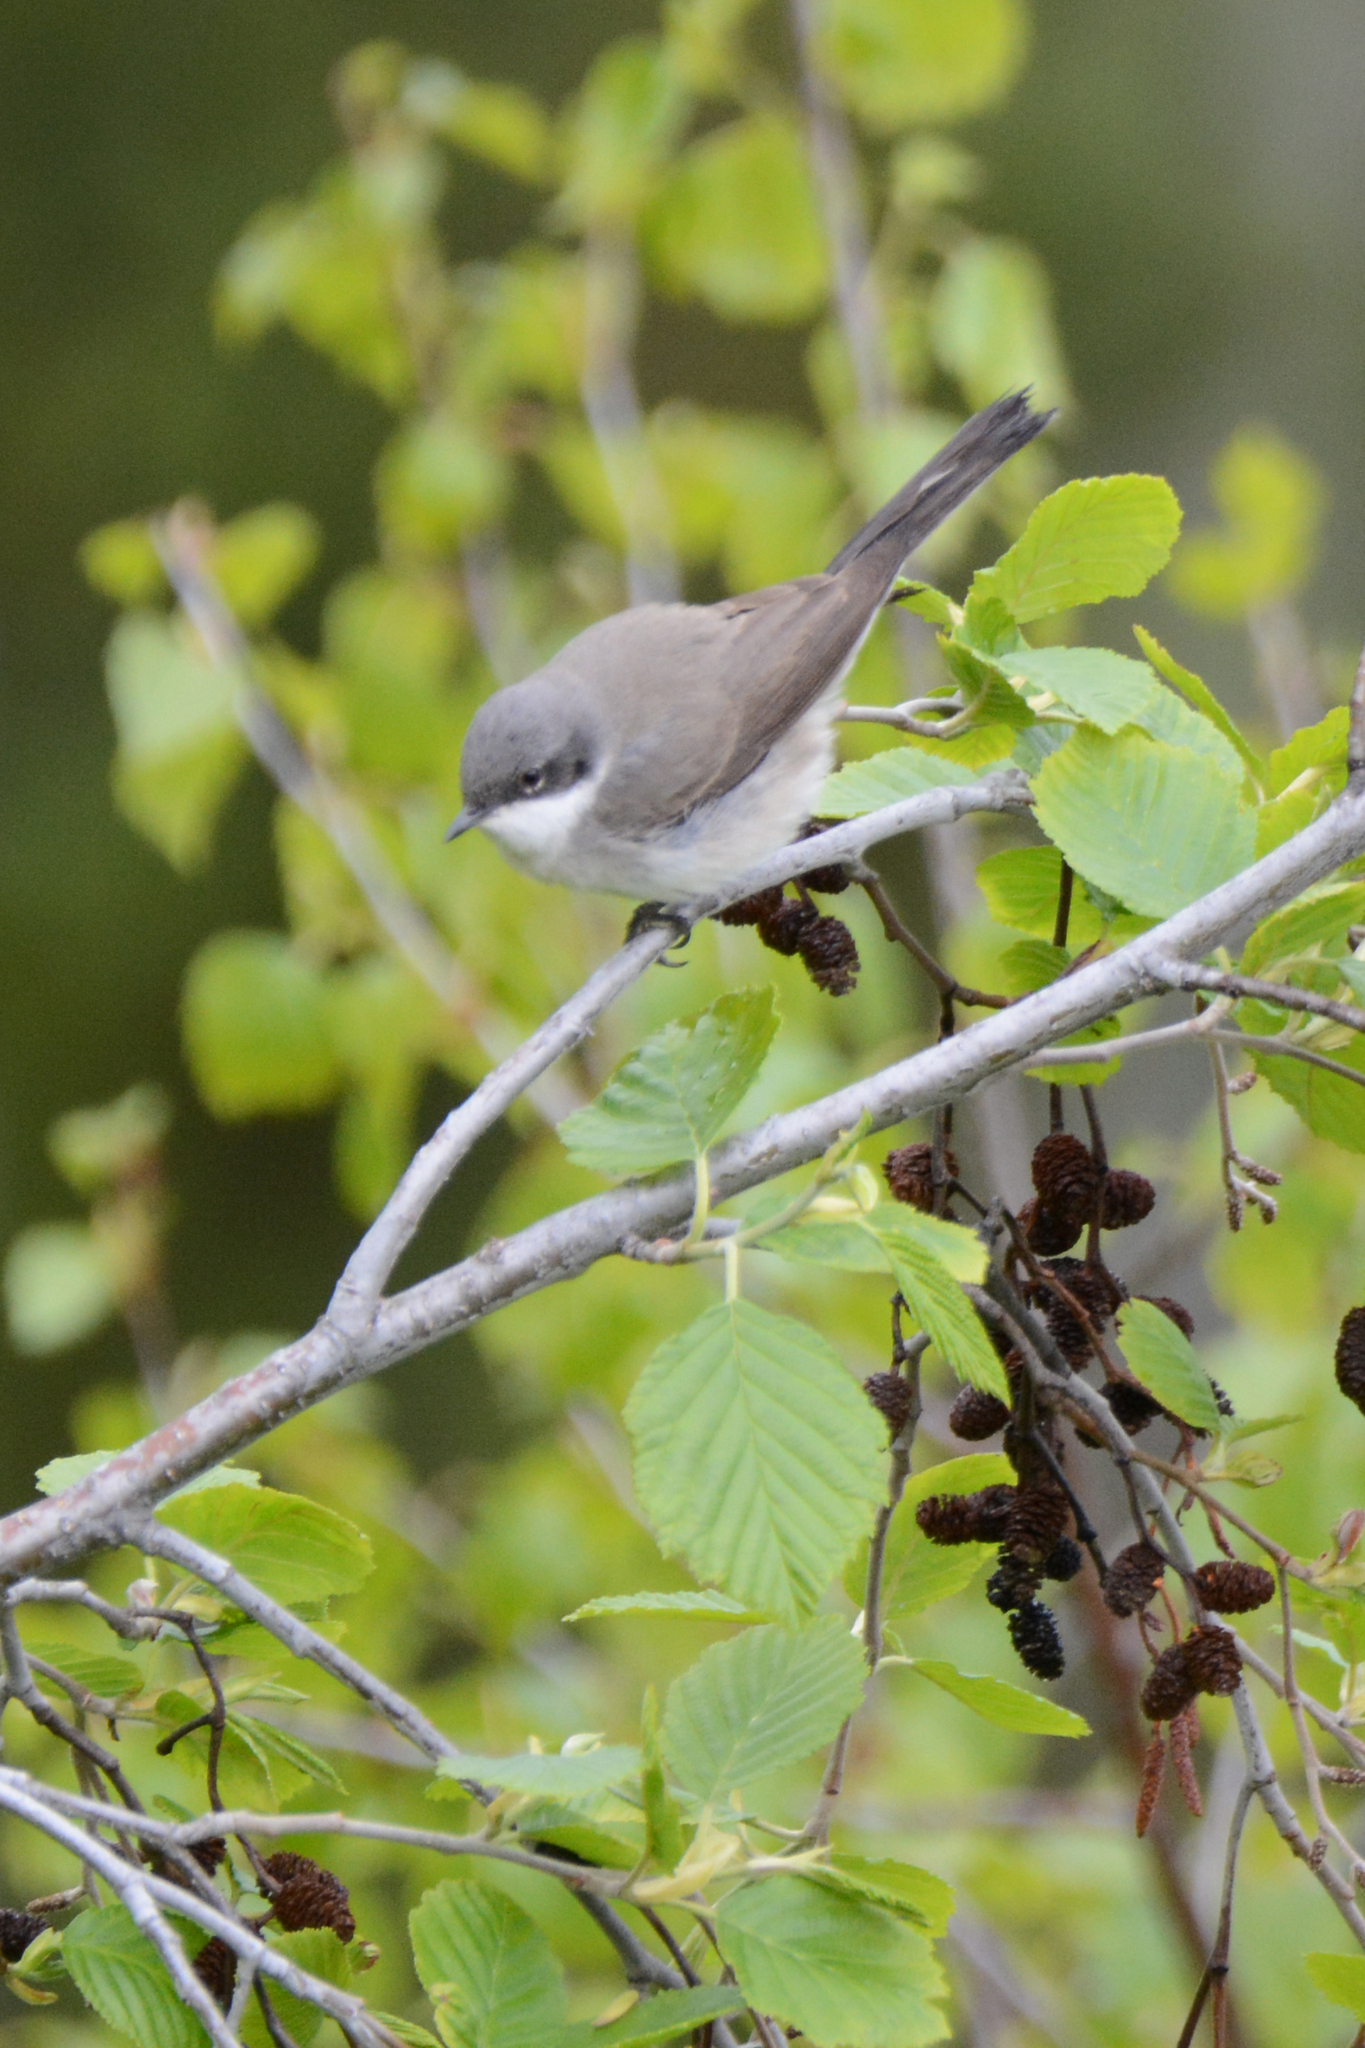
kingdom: Animalia
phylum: Chordata
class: Aves
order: Passeriformes
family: Sylviidae
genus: Sylvia
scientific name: Sylvia curruca
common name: Lesser whitethroat
